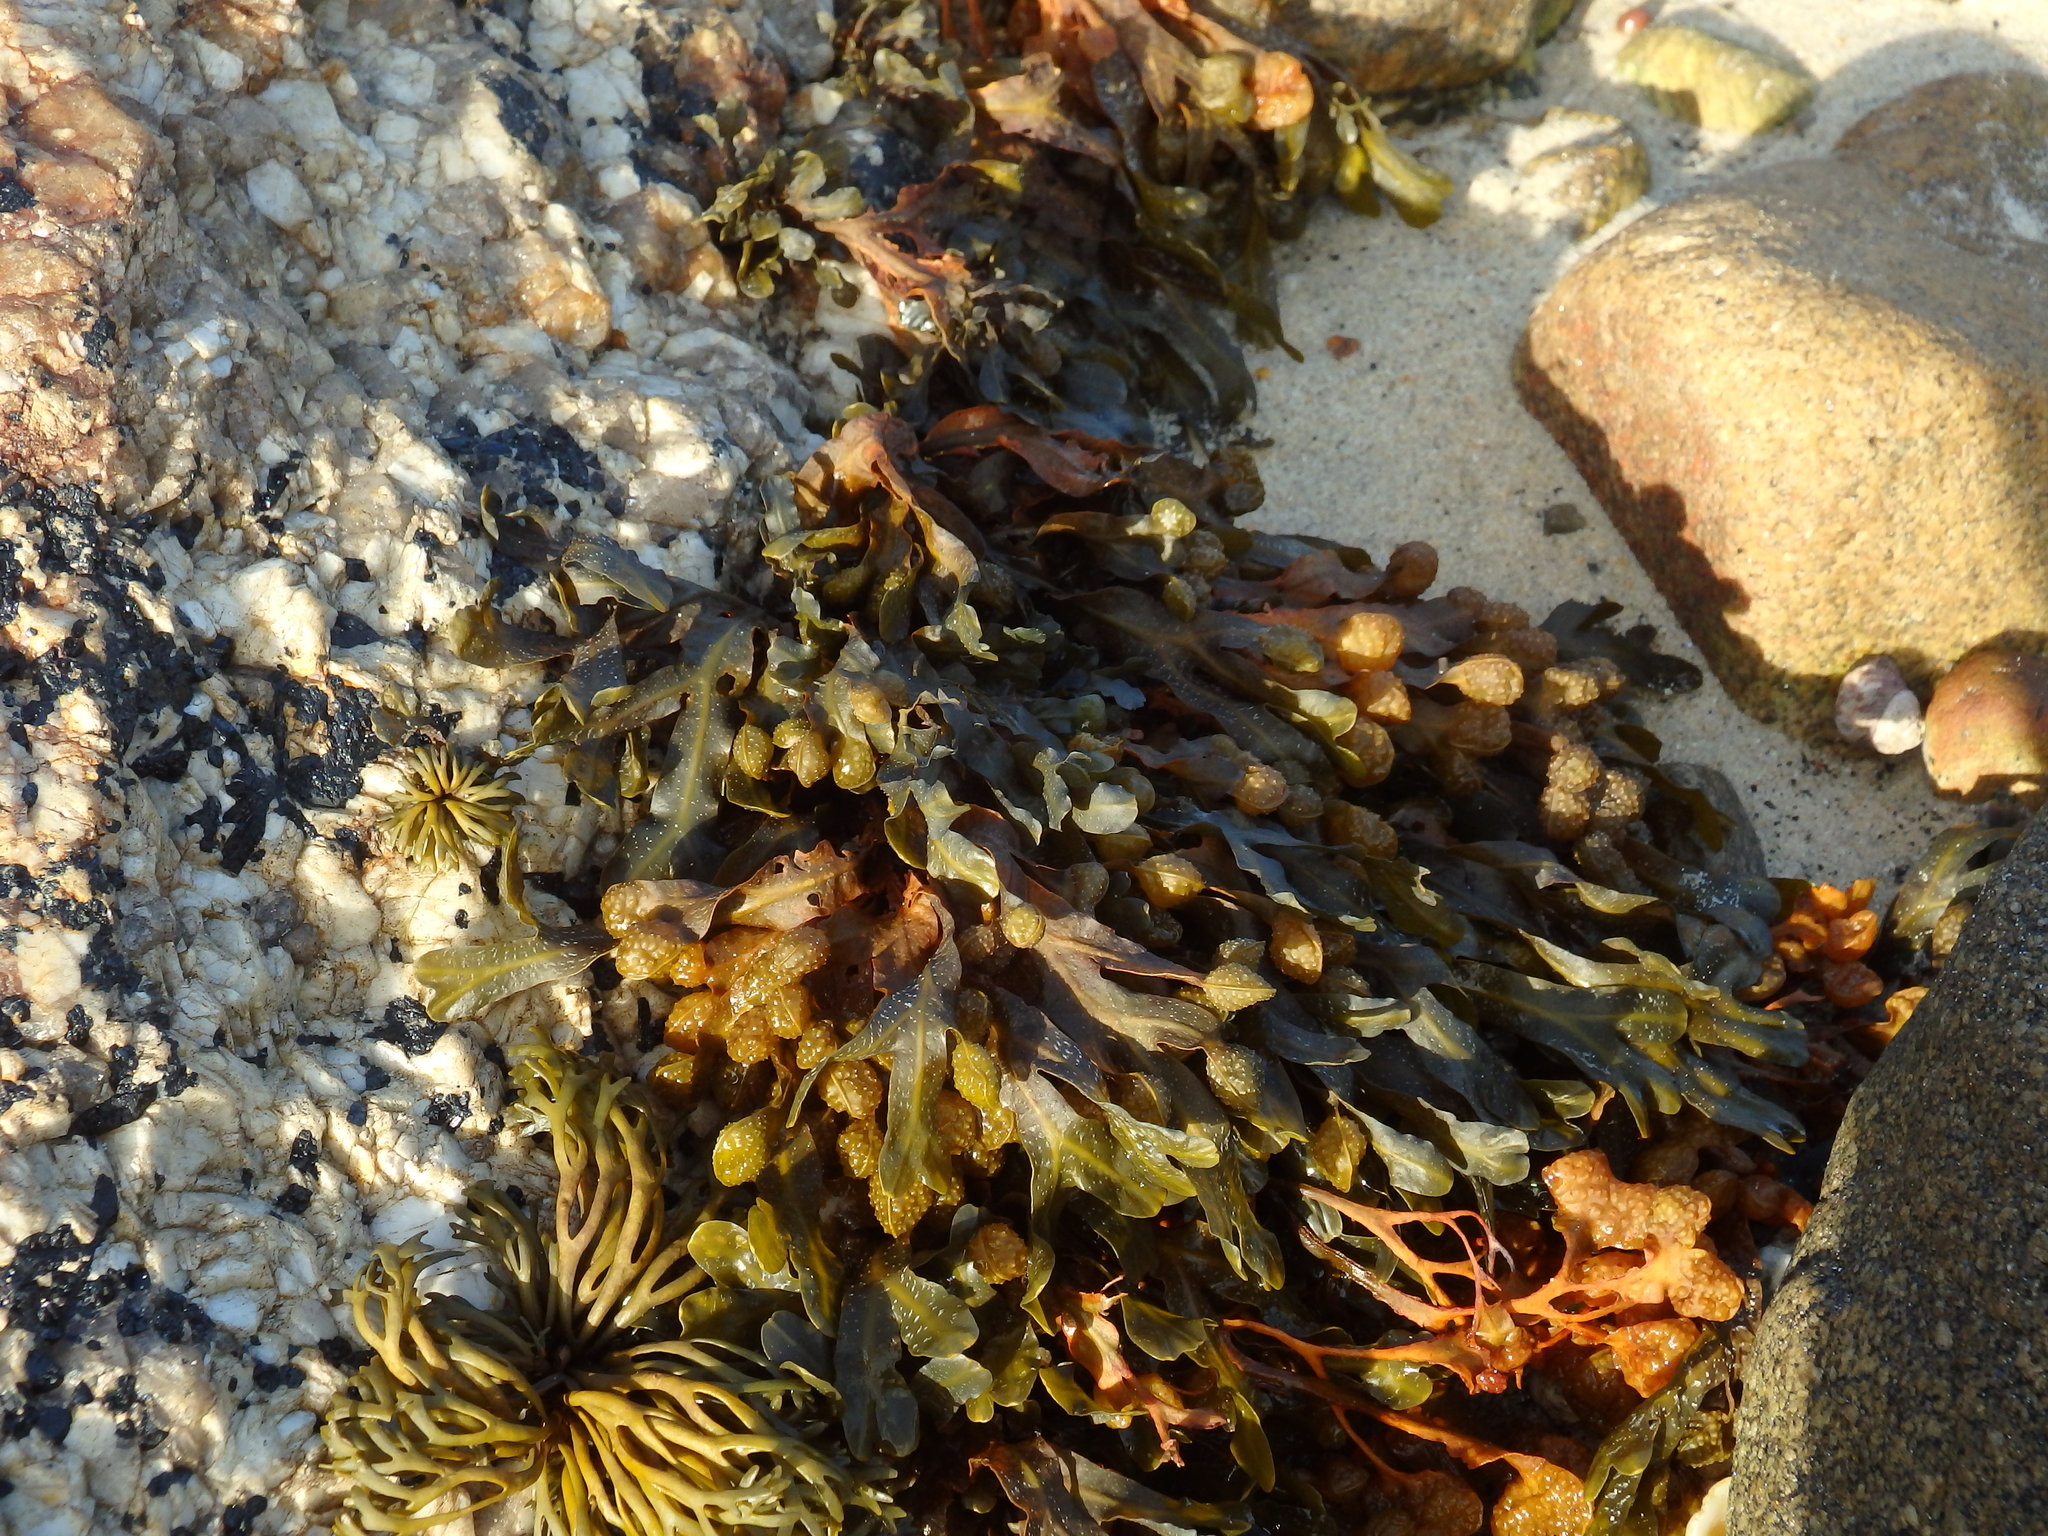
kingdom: Chromista
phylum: Ochrophyta
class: Phaeophyceae
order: Fucales
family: Fucaceae
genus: Fucus
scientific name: Fucus spiralis
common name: Spiral wrack
